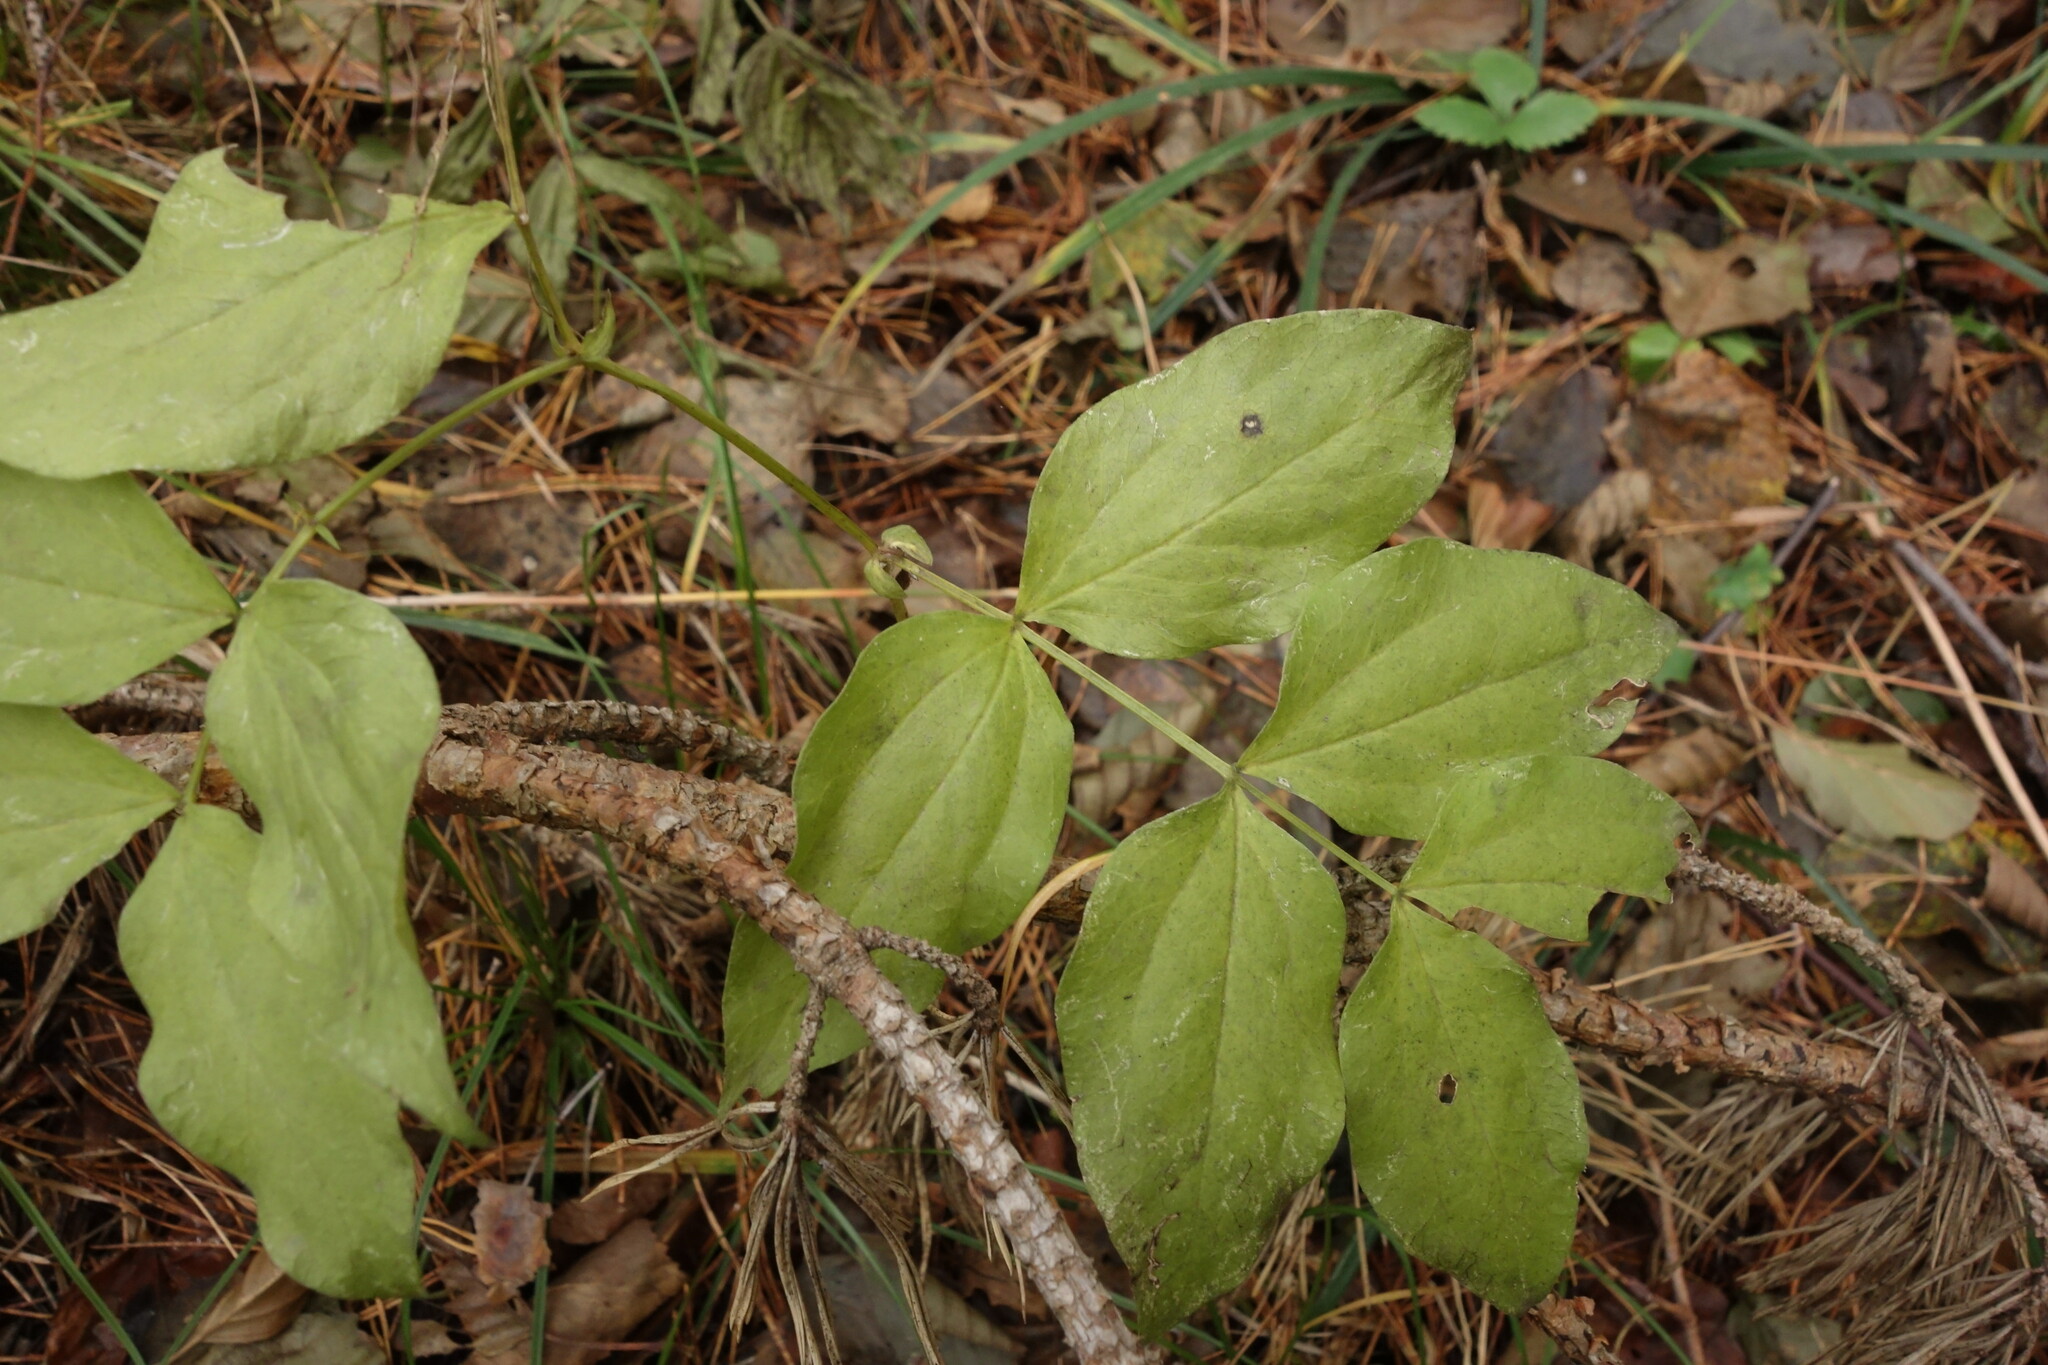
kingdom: Plantae
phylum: Tracheophyta
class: Magnoliopsida
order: Fabales
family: Fabaceae
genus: Lathyrus
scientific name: Lathyrus vernus
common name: Spring pea
